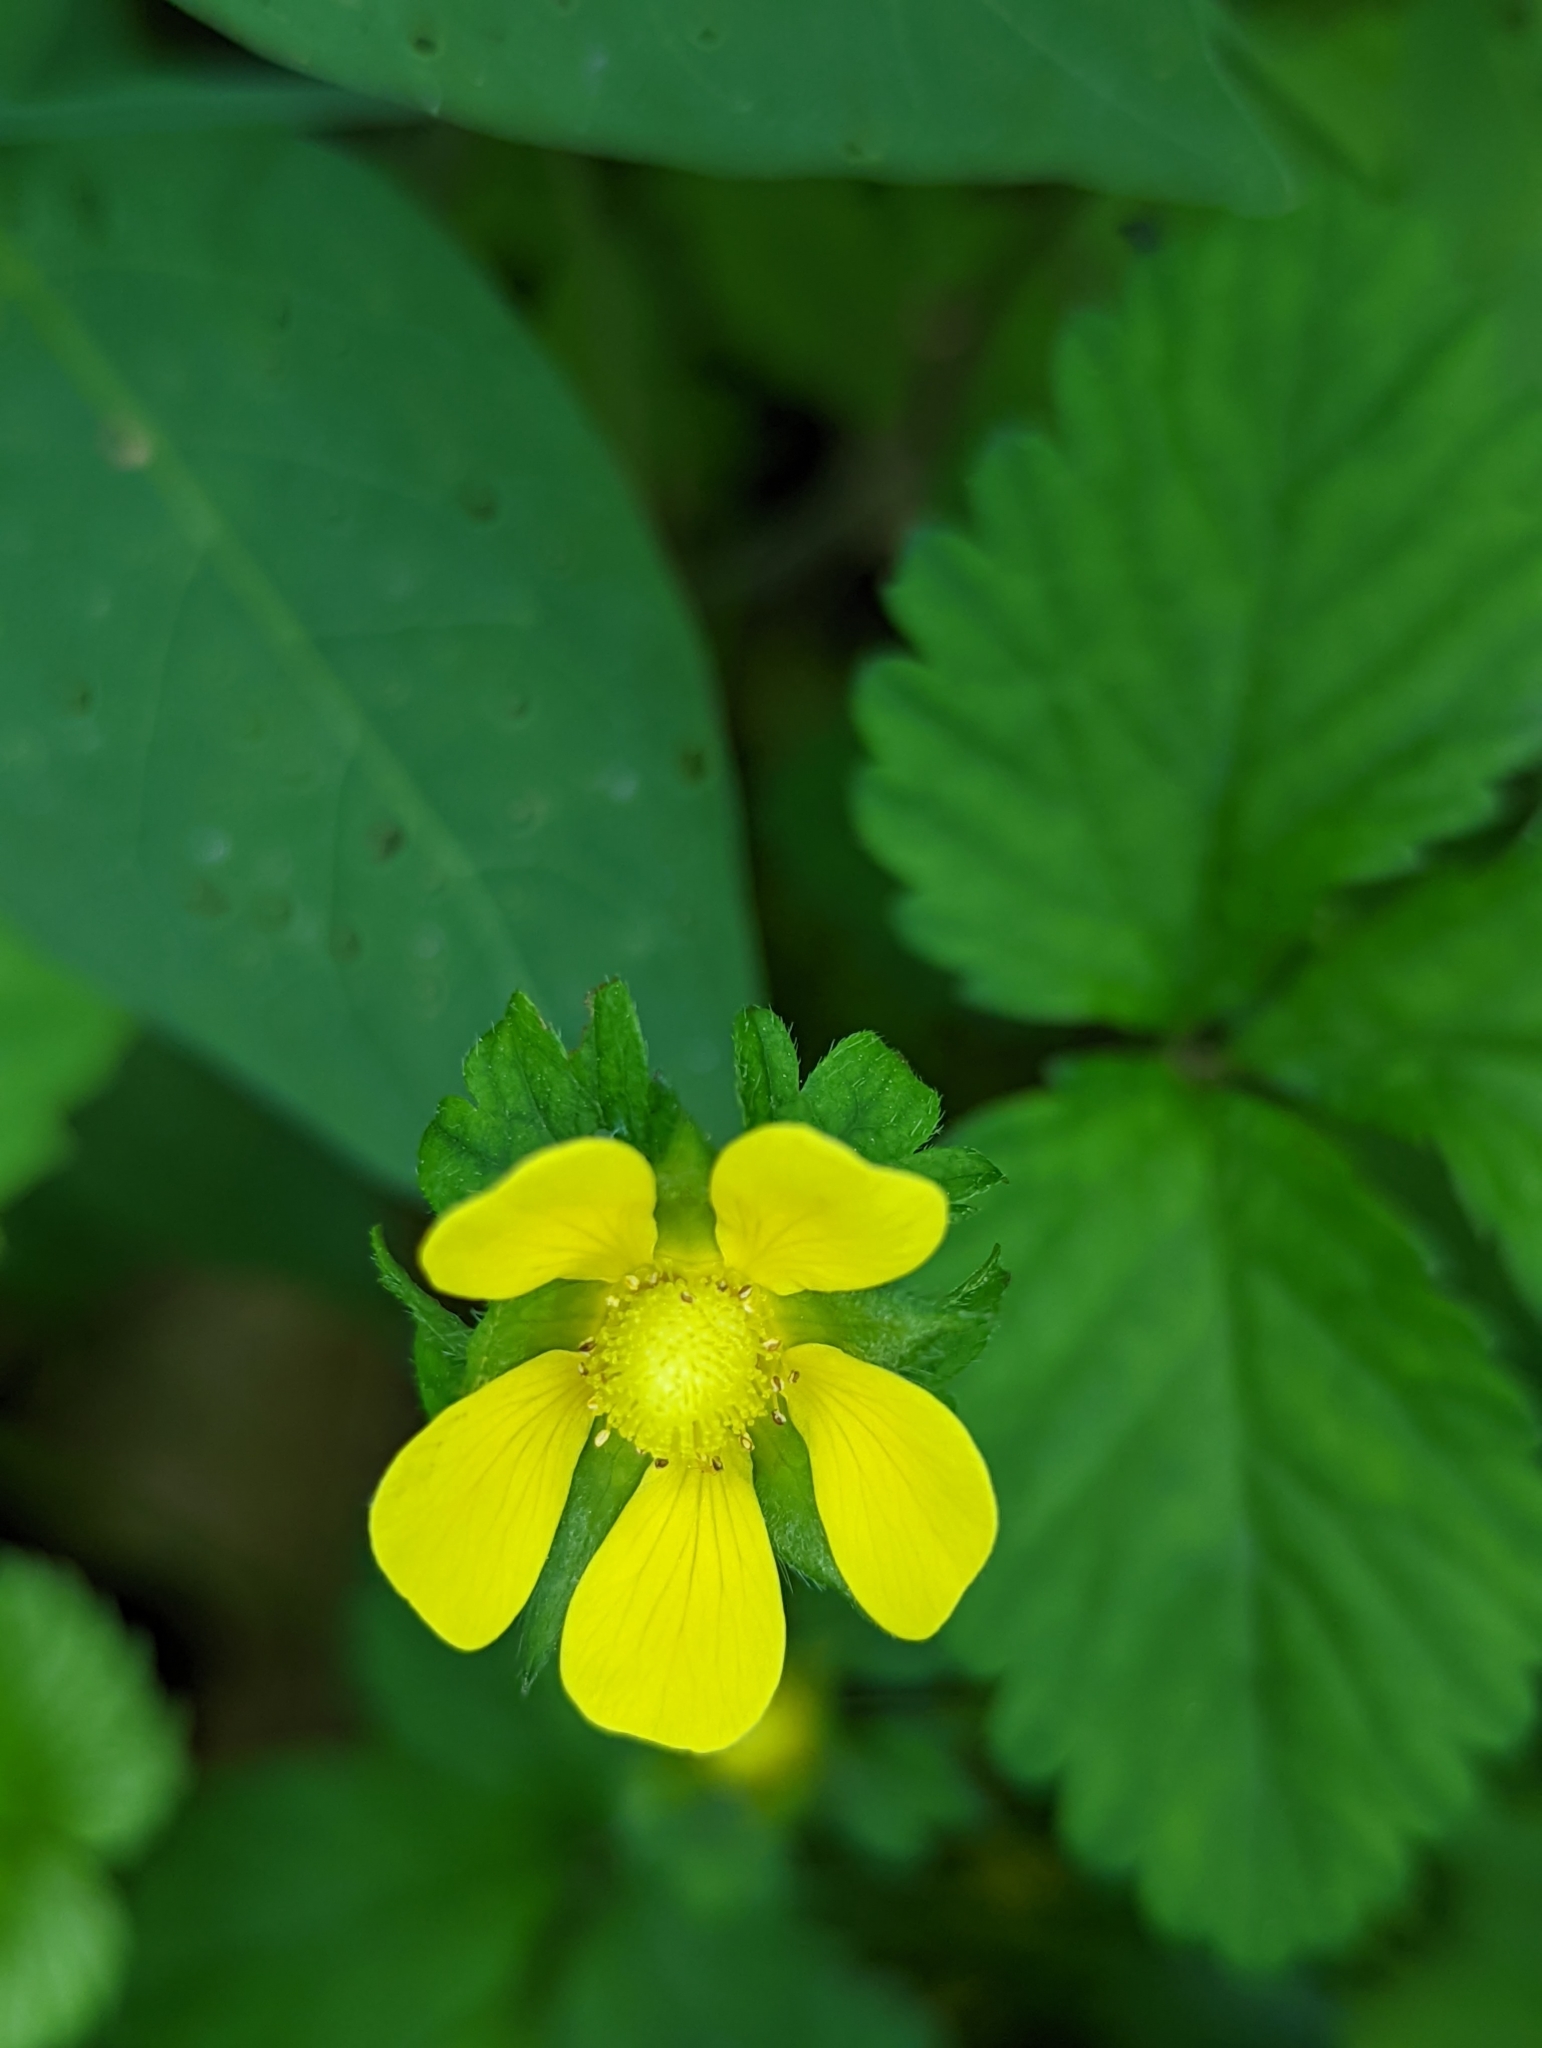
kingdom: Plantae
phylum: Tracheophyta
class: Magnoliopsida
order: Rosales
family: Rosaceae
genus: Potentilla
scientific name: Potentilla indica
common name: Yellow-flowered strawberry
